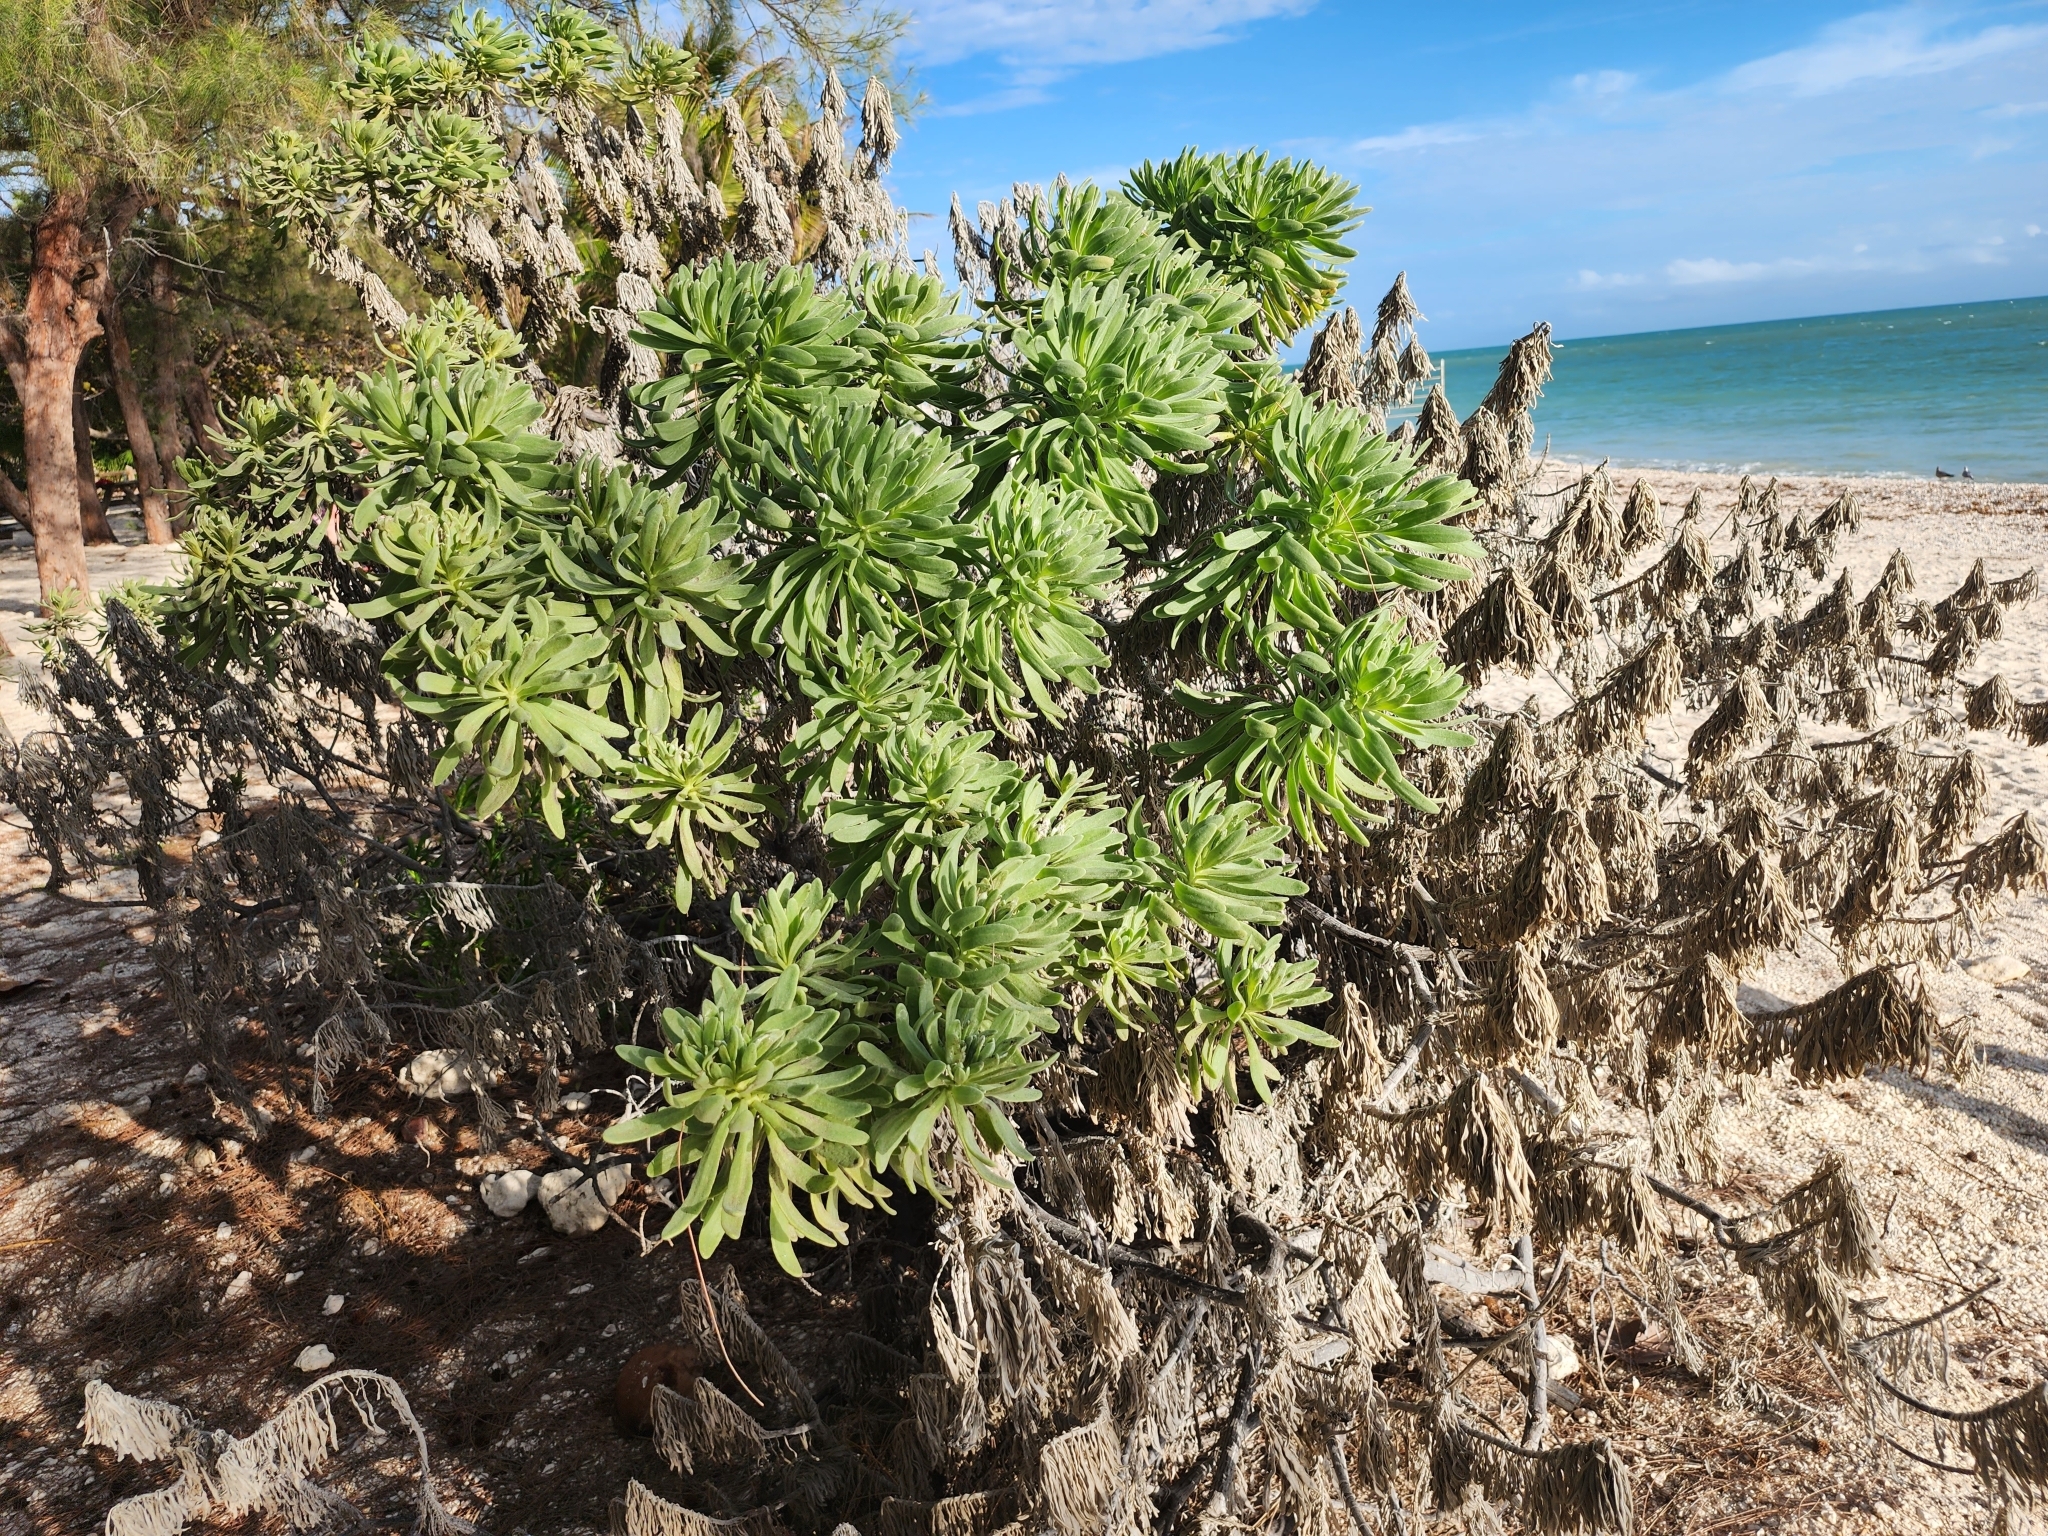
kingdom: Plantae
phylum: Tracheophyta
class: Magnoliopsida
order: Boraginales
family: Heliotropiaceae
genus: Tournefortia
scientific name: Tournefortia gnaphalodes
